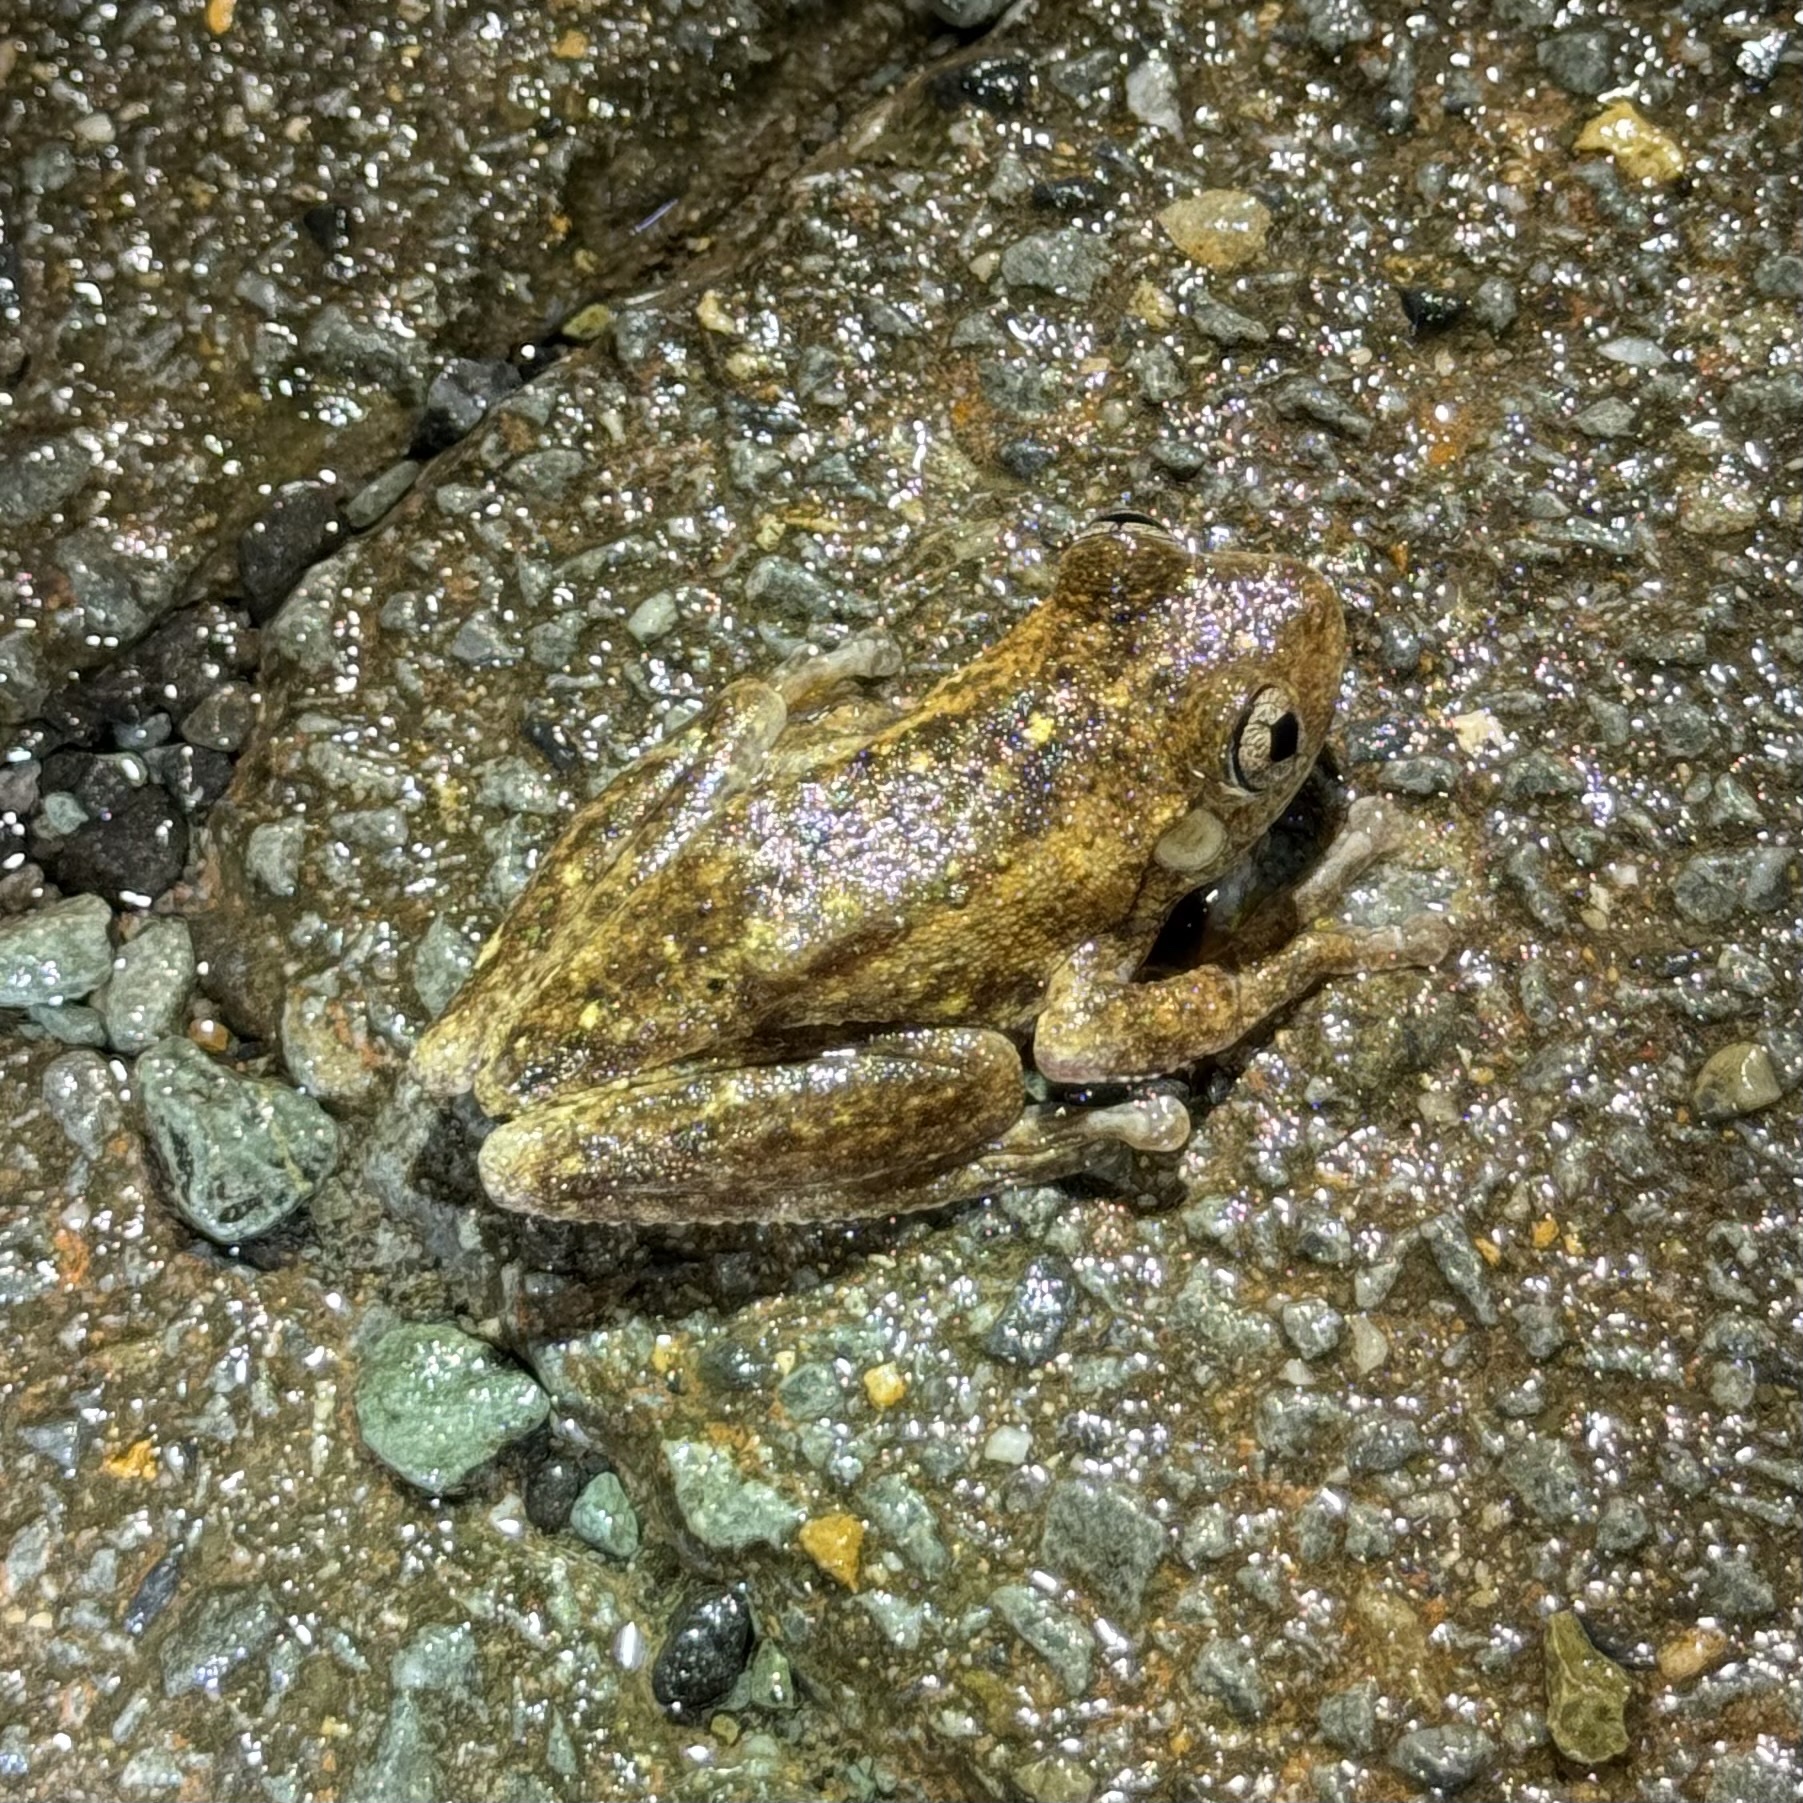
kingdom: Animalia
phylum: Chordata
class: Amphibia
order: Anura
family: Pelodryadidae
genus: Litoria
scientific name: Litoria peronii
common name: Emerald spotted treefrog
